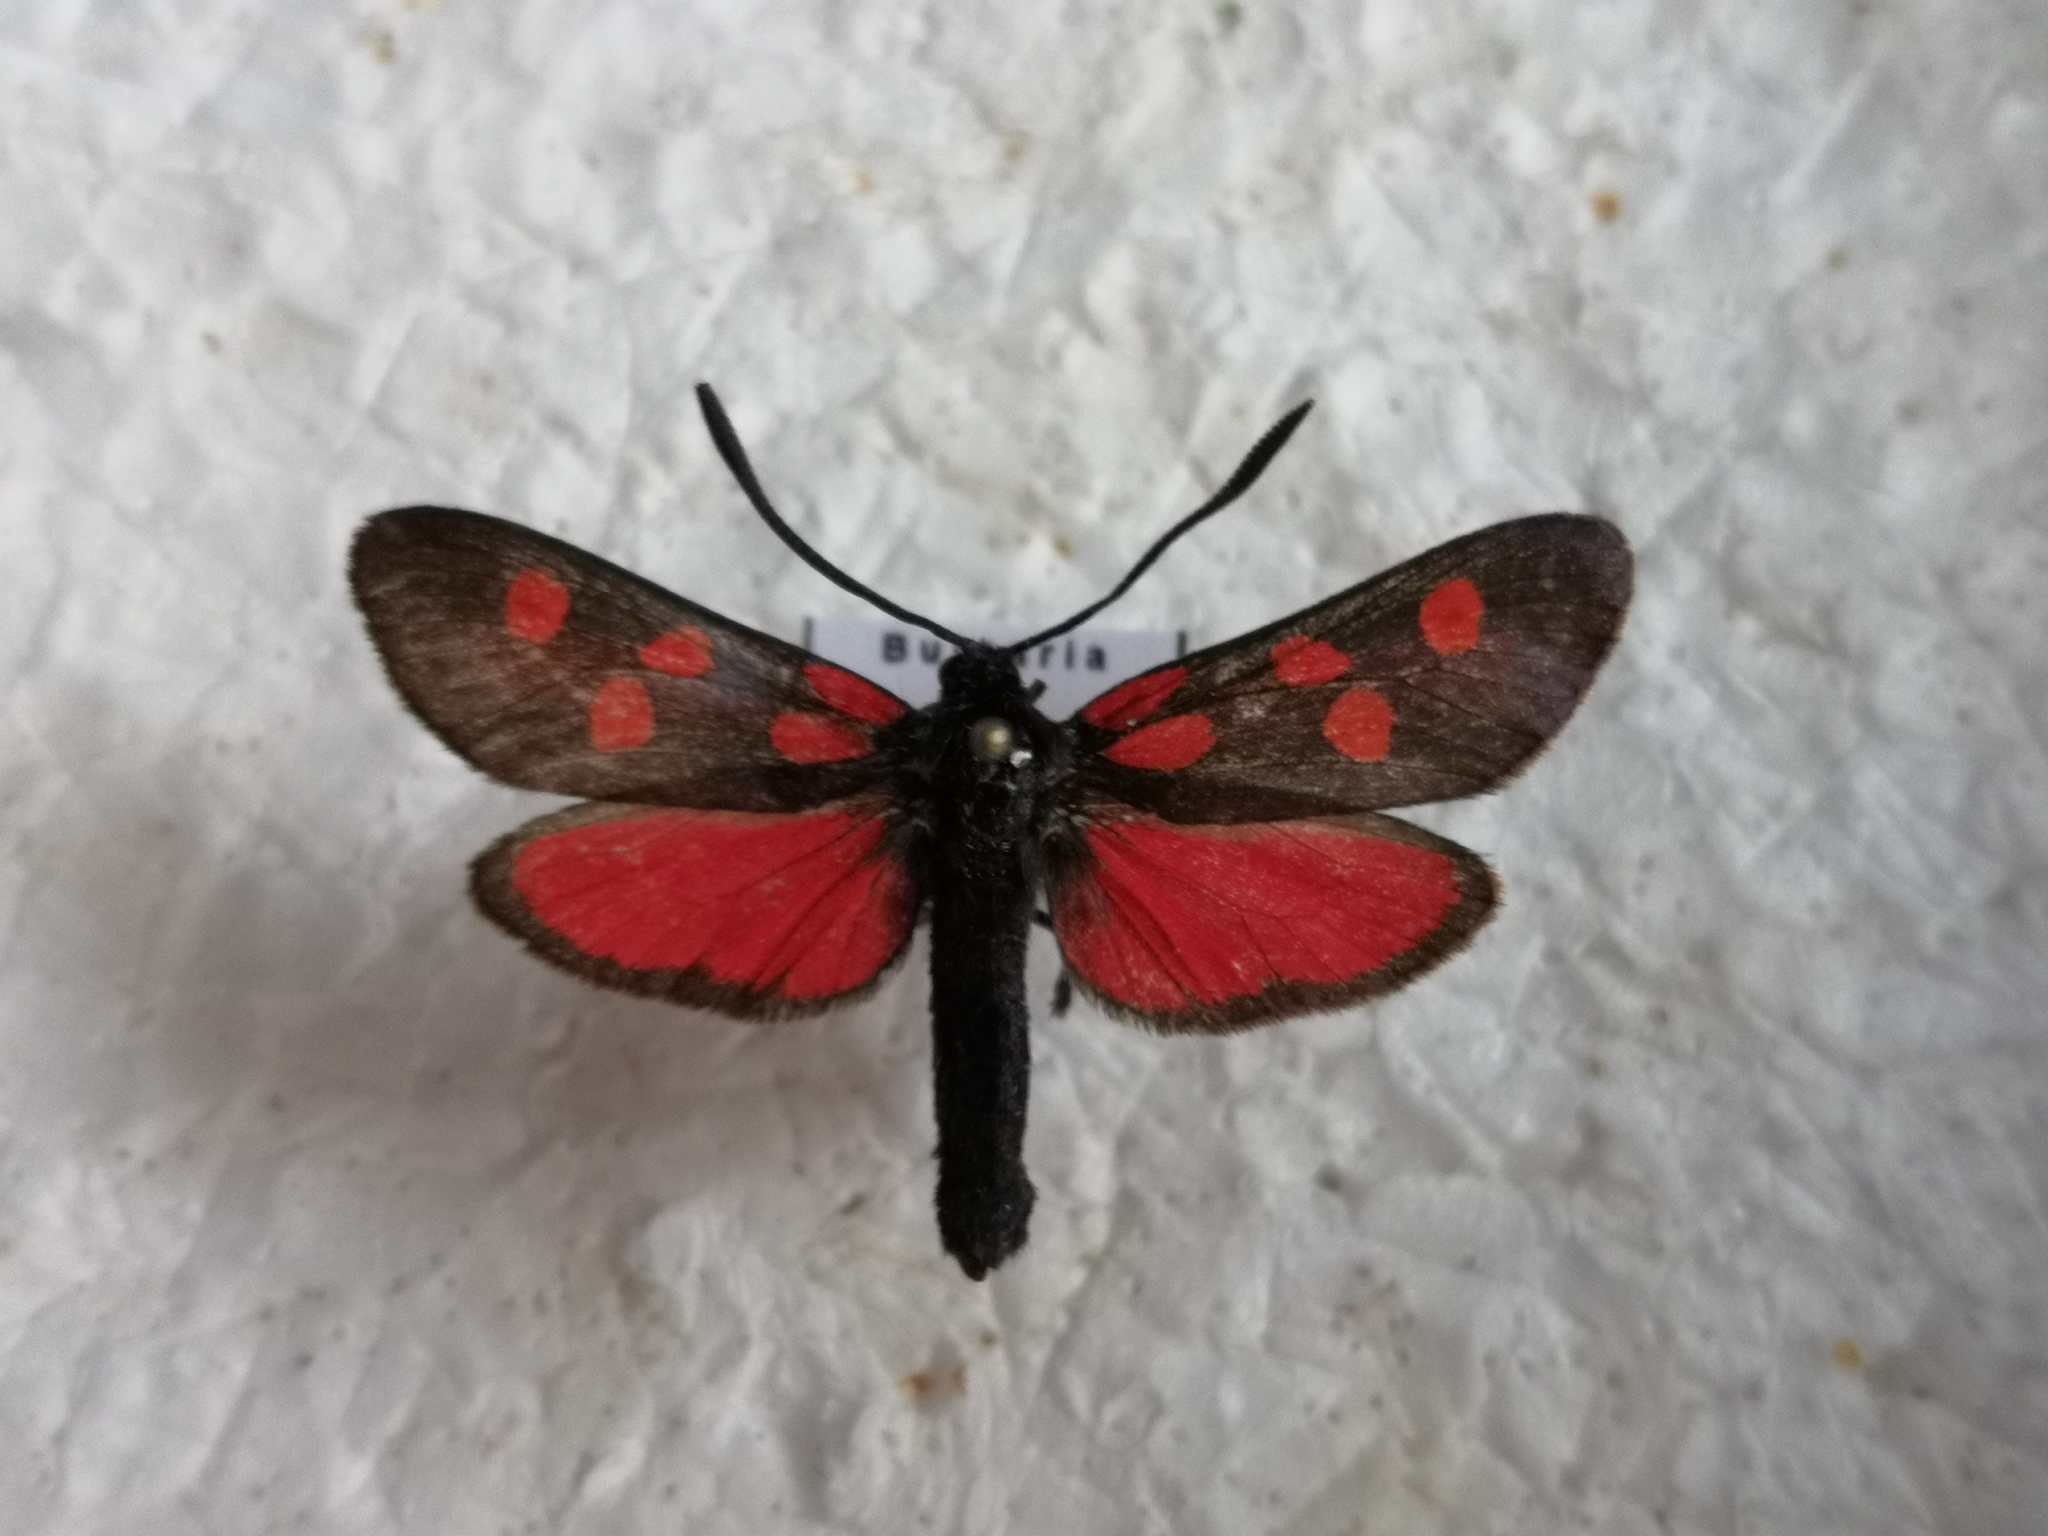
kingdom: Animalia
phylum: Arthropoda
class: Insecta
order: Lepidoptera
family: Zygaenidae
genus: Zygaena
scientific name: Zygaena angelicae
